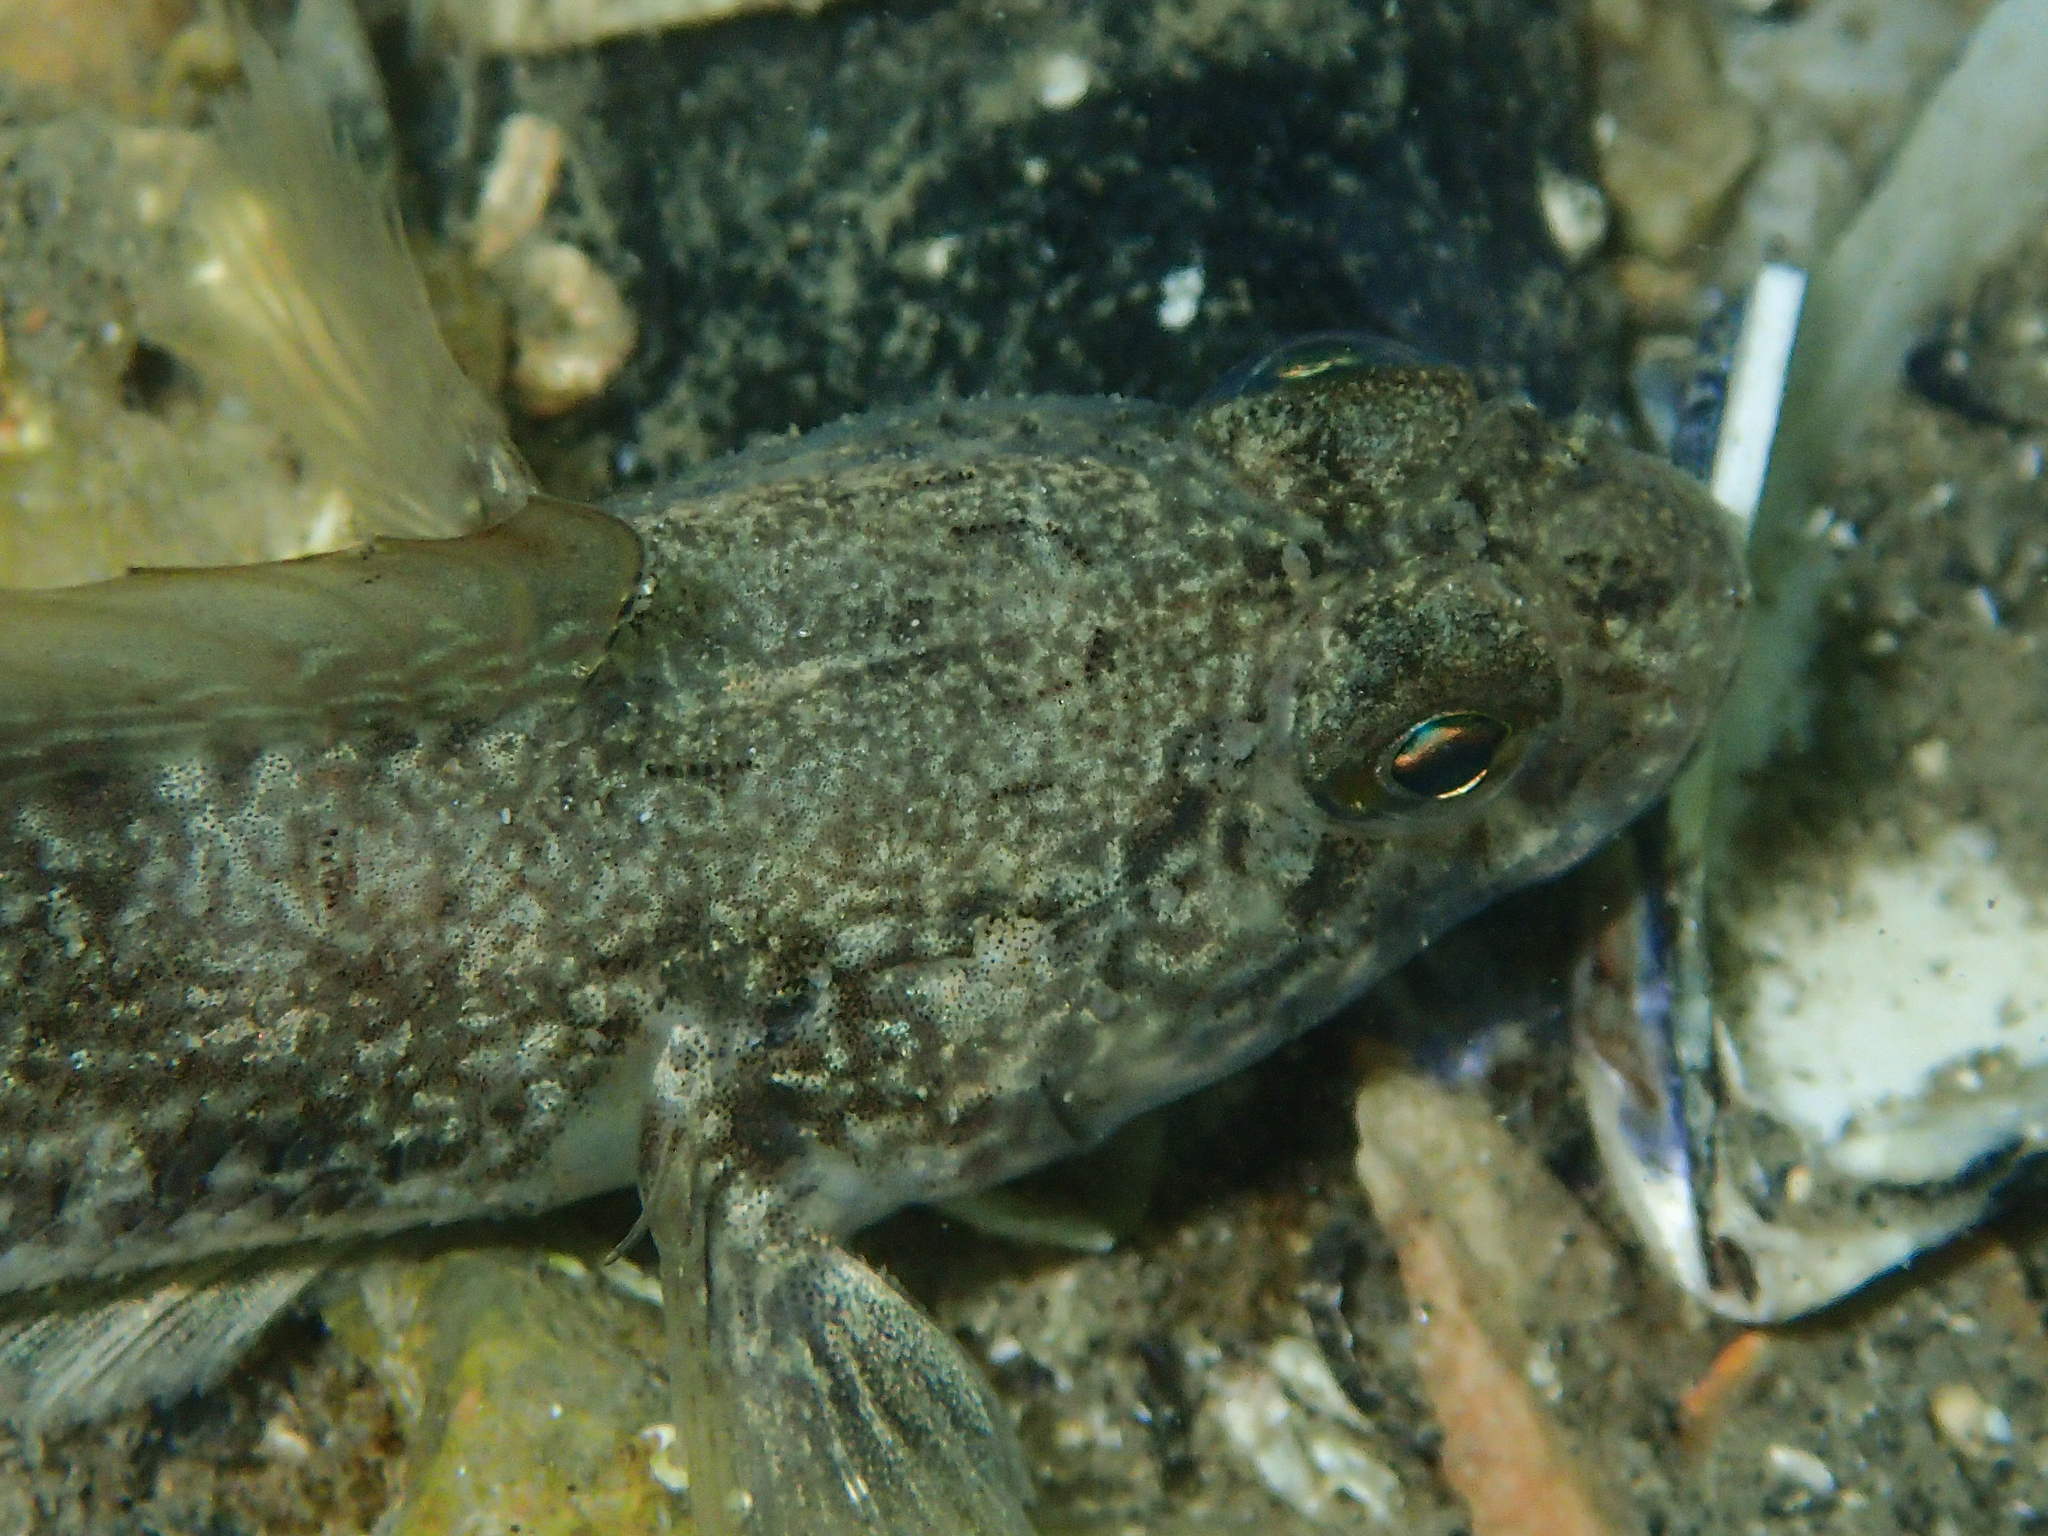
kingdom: Animalia
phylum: Chordata
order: Perciformes
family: Gobiidae
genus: Gobius
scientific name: Gobius niger
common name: Black goby
